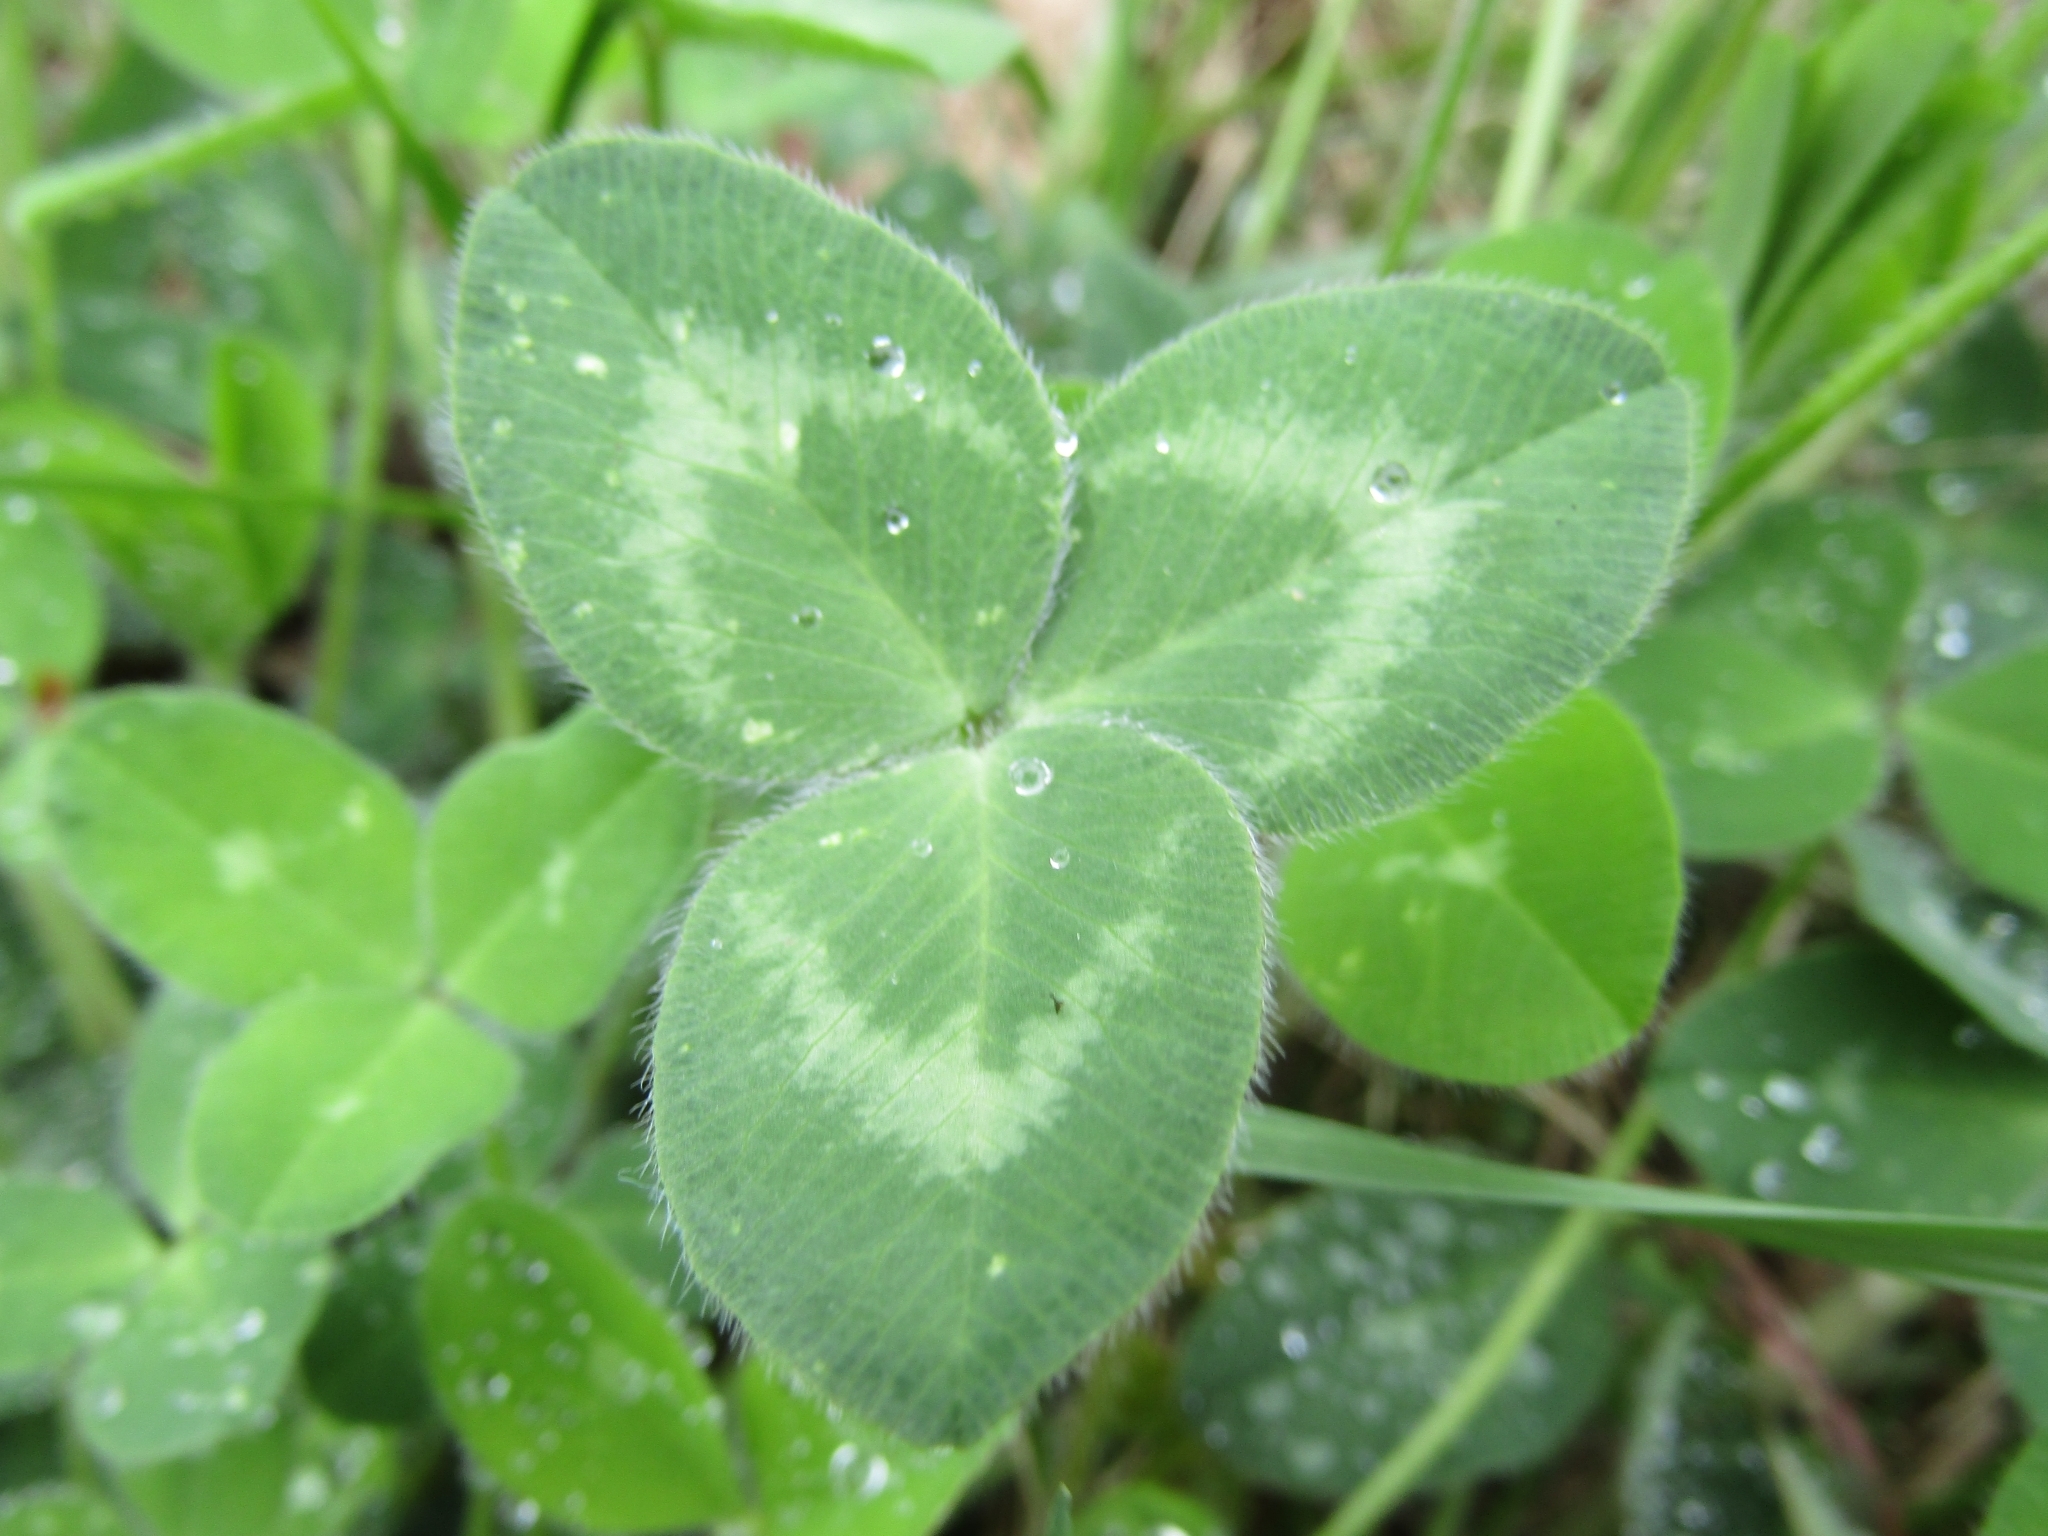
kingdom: Plantae
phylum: Tracheophyta
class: Magnoliopsida
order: Fabales
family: Fabaceae
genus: Trifolium
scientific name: Trifolium pratense
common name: Red clover
